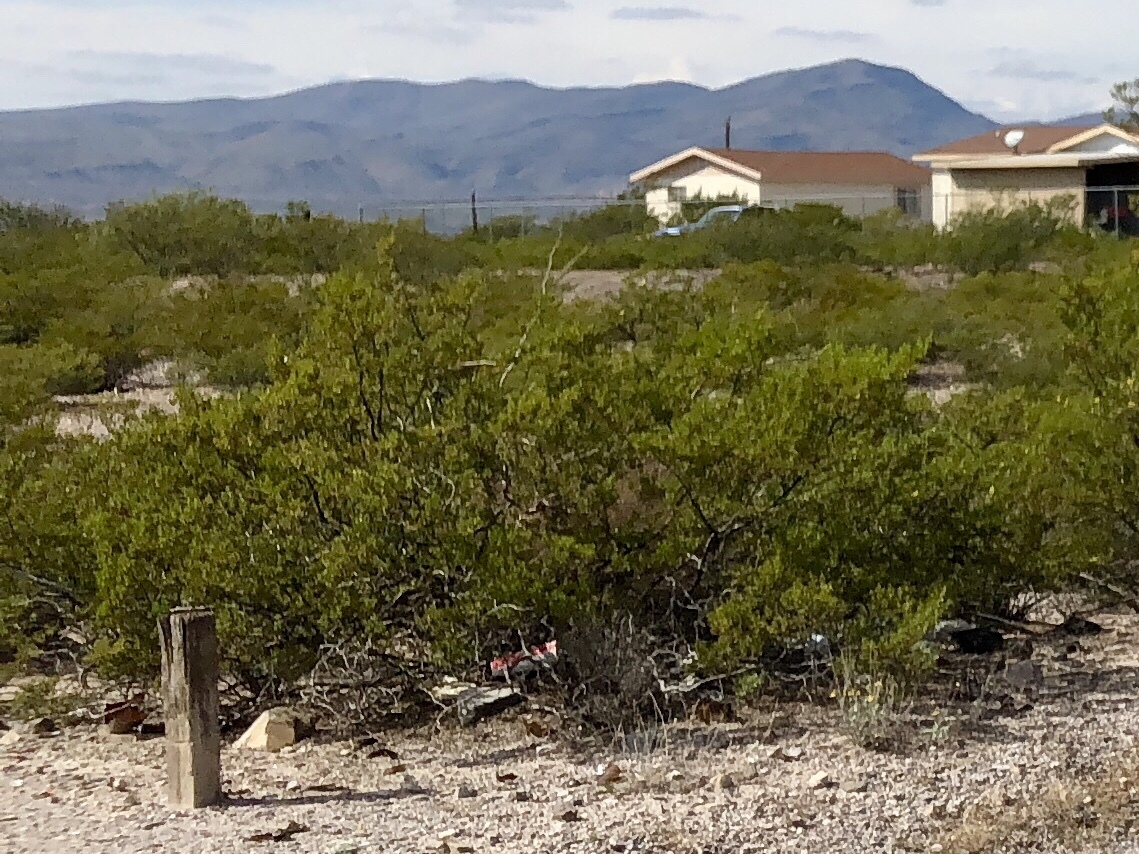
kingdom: Plantae
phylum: Tracheophyta
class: Magnoliopsida
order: Zygophyllales
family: Zygophyllaceae
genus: Larrea
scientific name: Larrea tridentata
